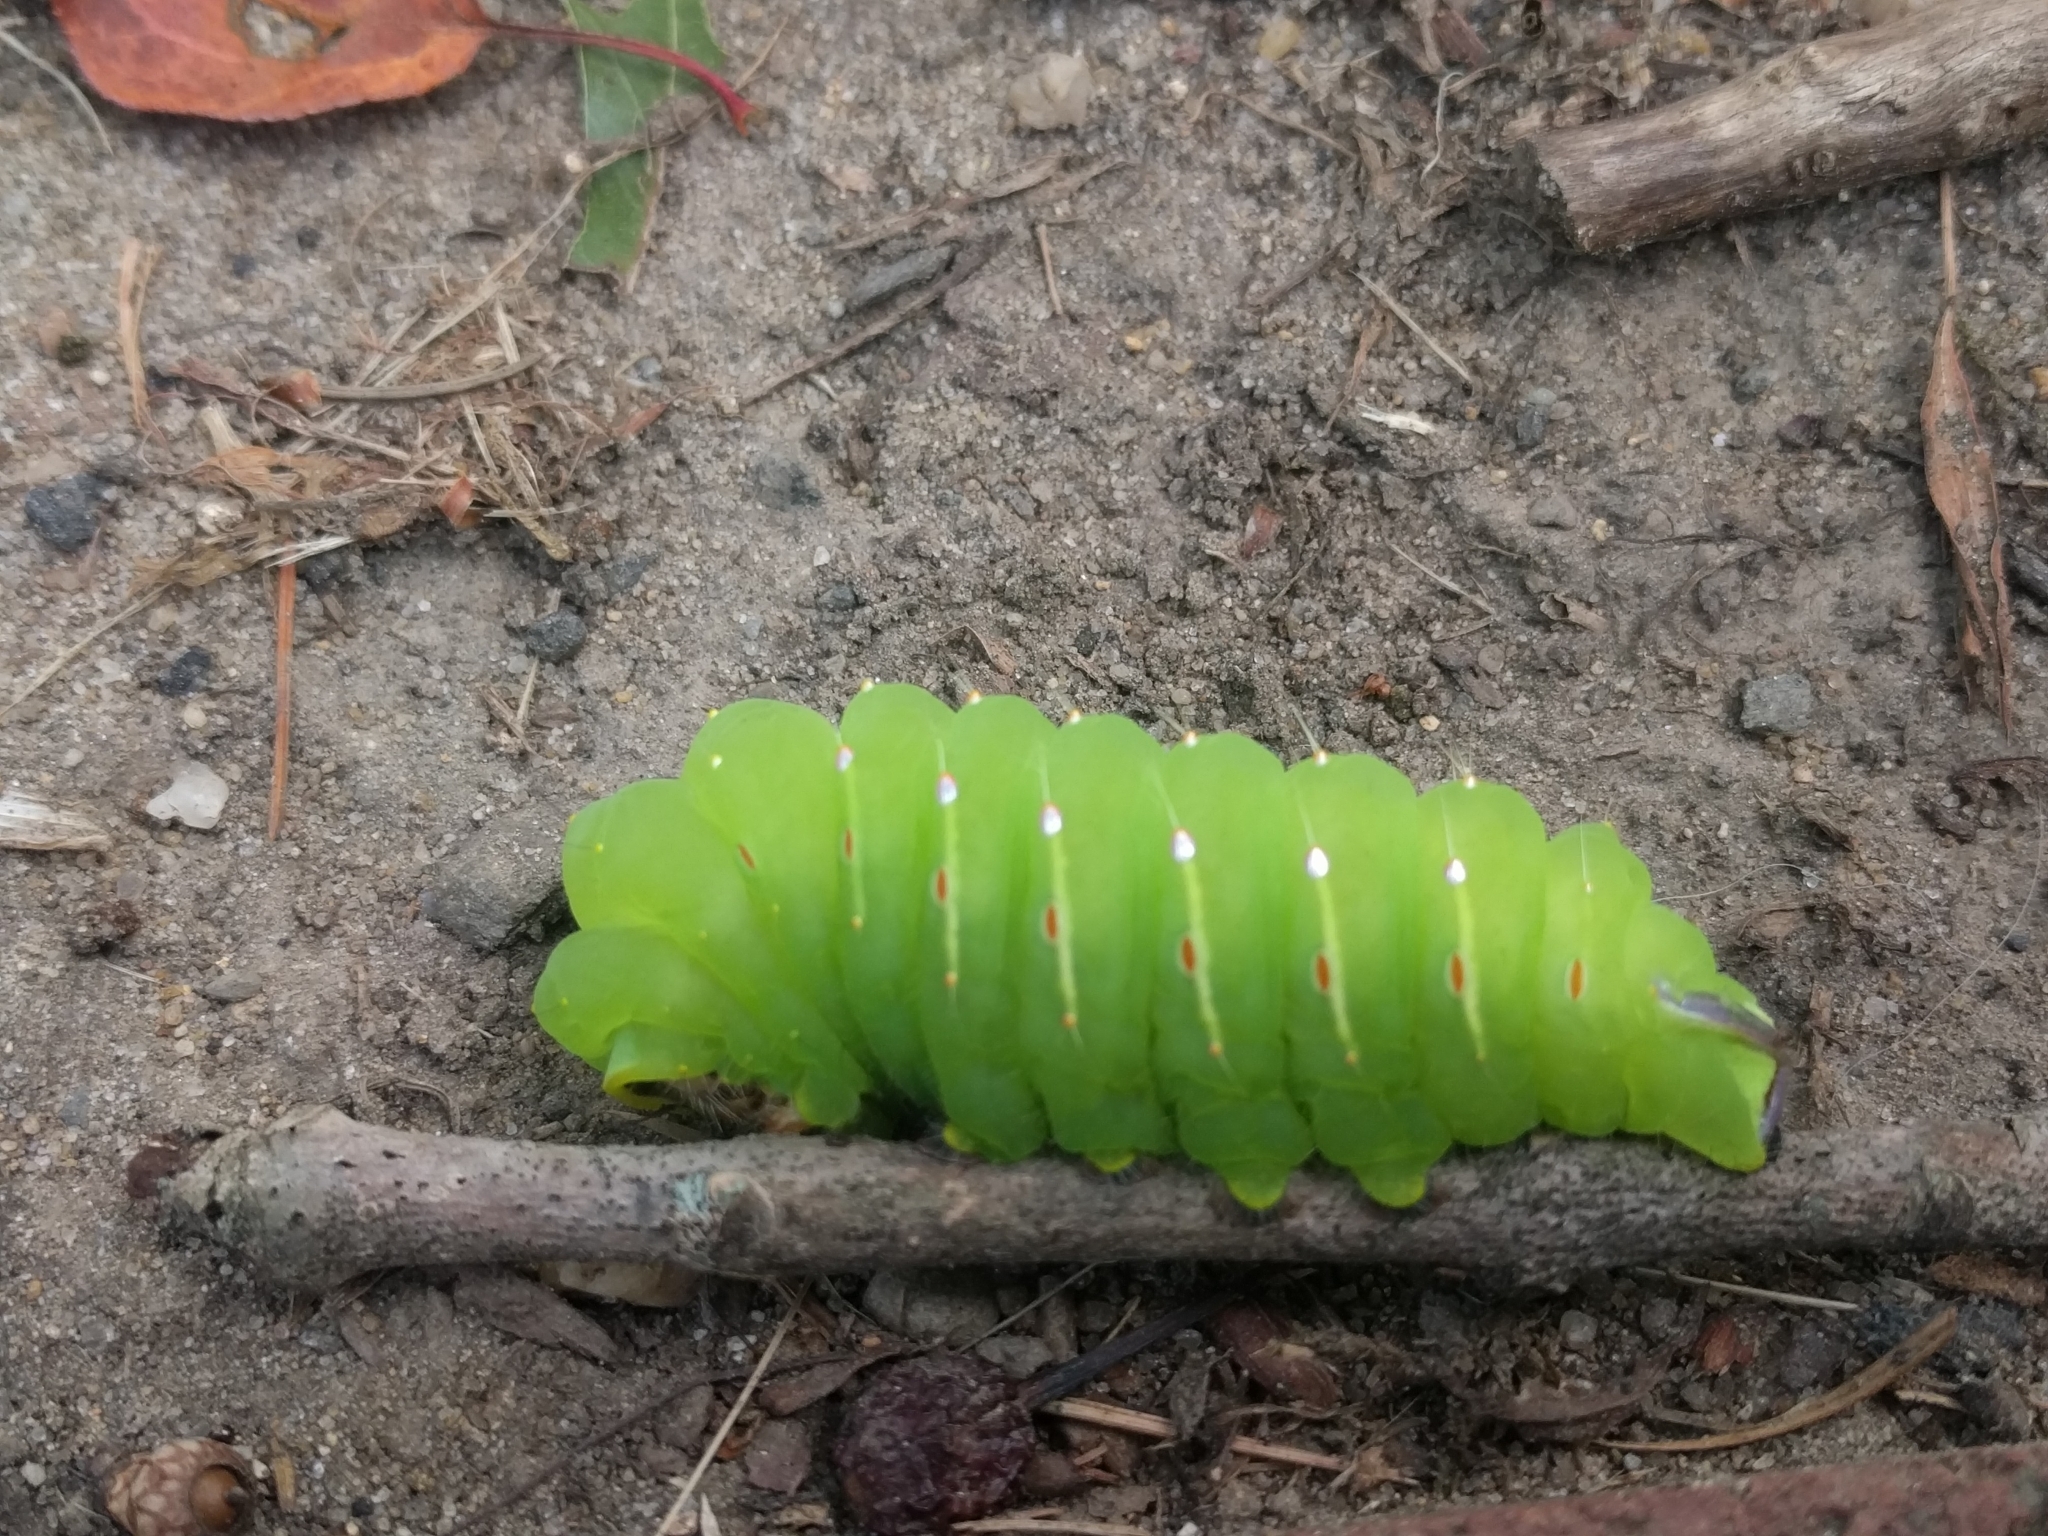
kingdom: Animalia
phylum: Arthropoda
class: Insecta
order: Lepidoptera
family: Saturniidae
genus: Antheraea
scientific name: Antheraea polyphemus
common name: Polyphemus moth
